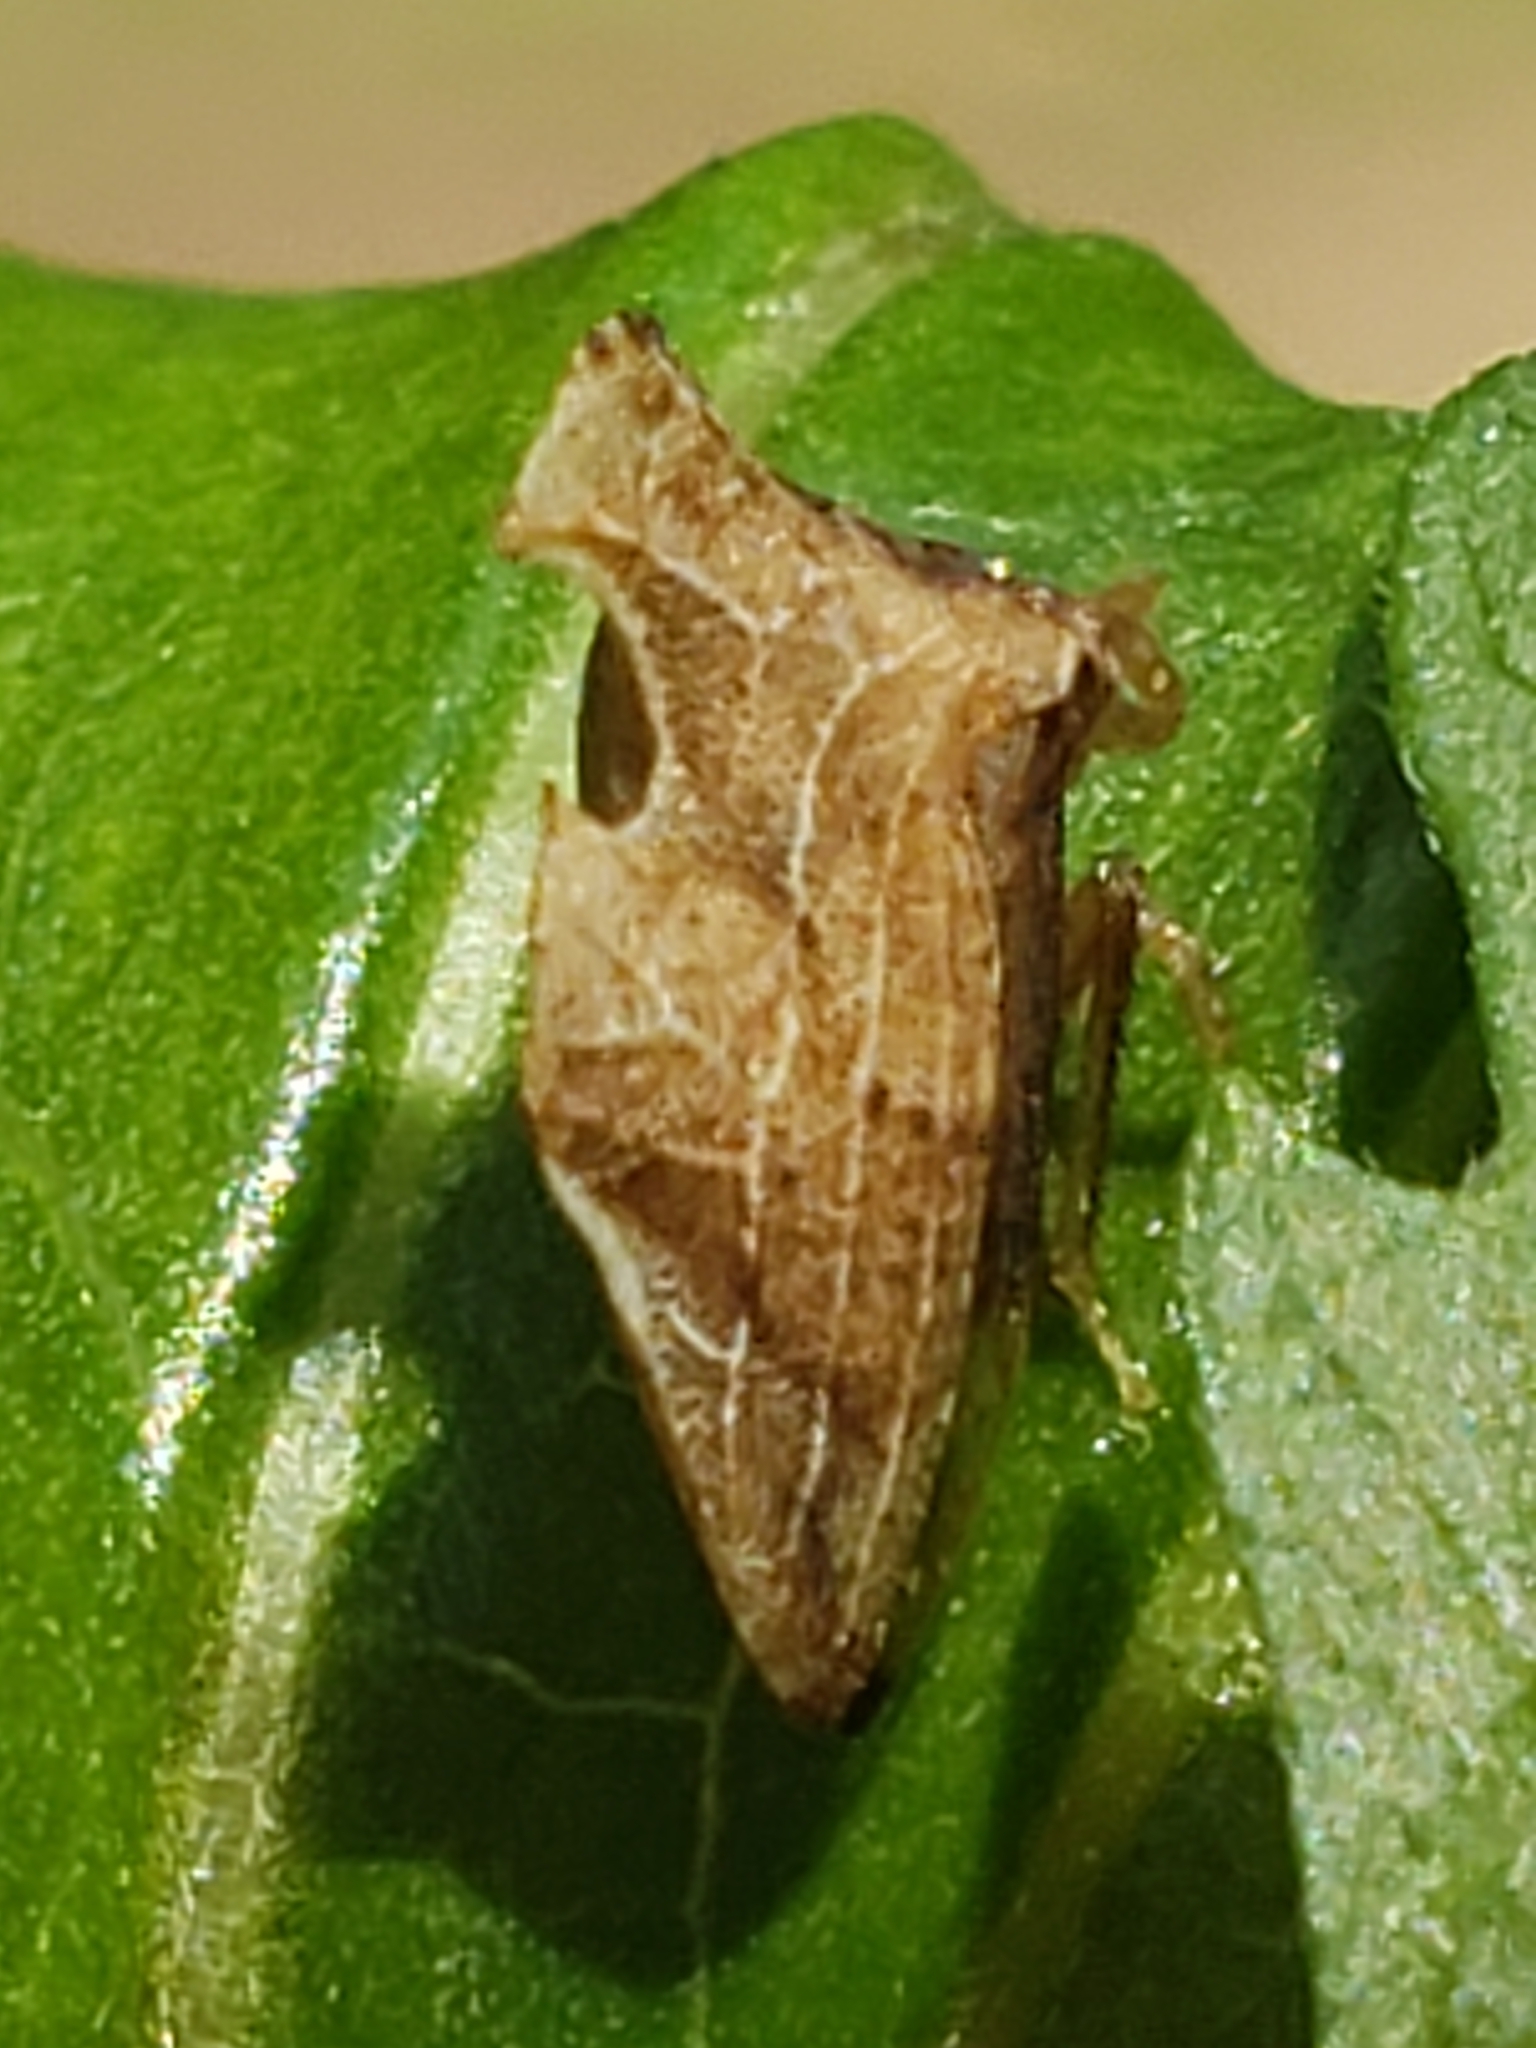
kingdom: Animalia
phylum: Arthropoda
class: Insecta
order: Hemiptera
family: Membracidae
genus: Entylia
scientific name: Entylia carinata
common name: Keeled treehopper
